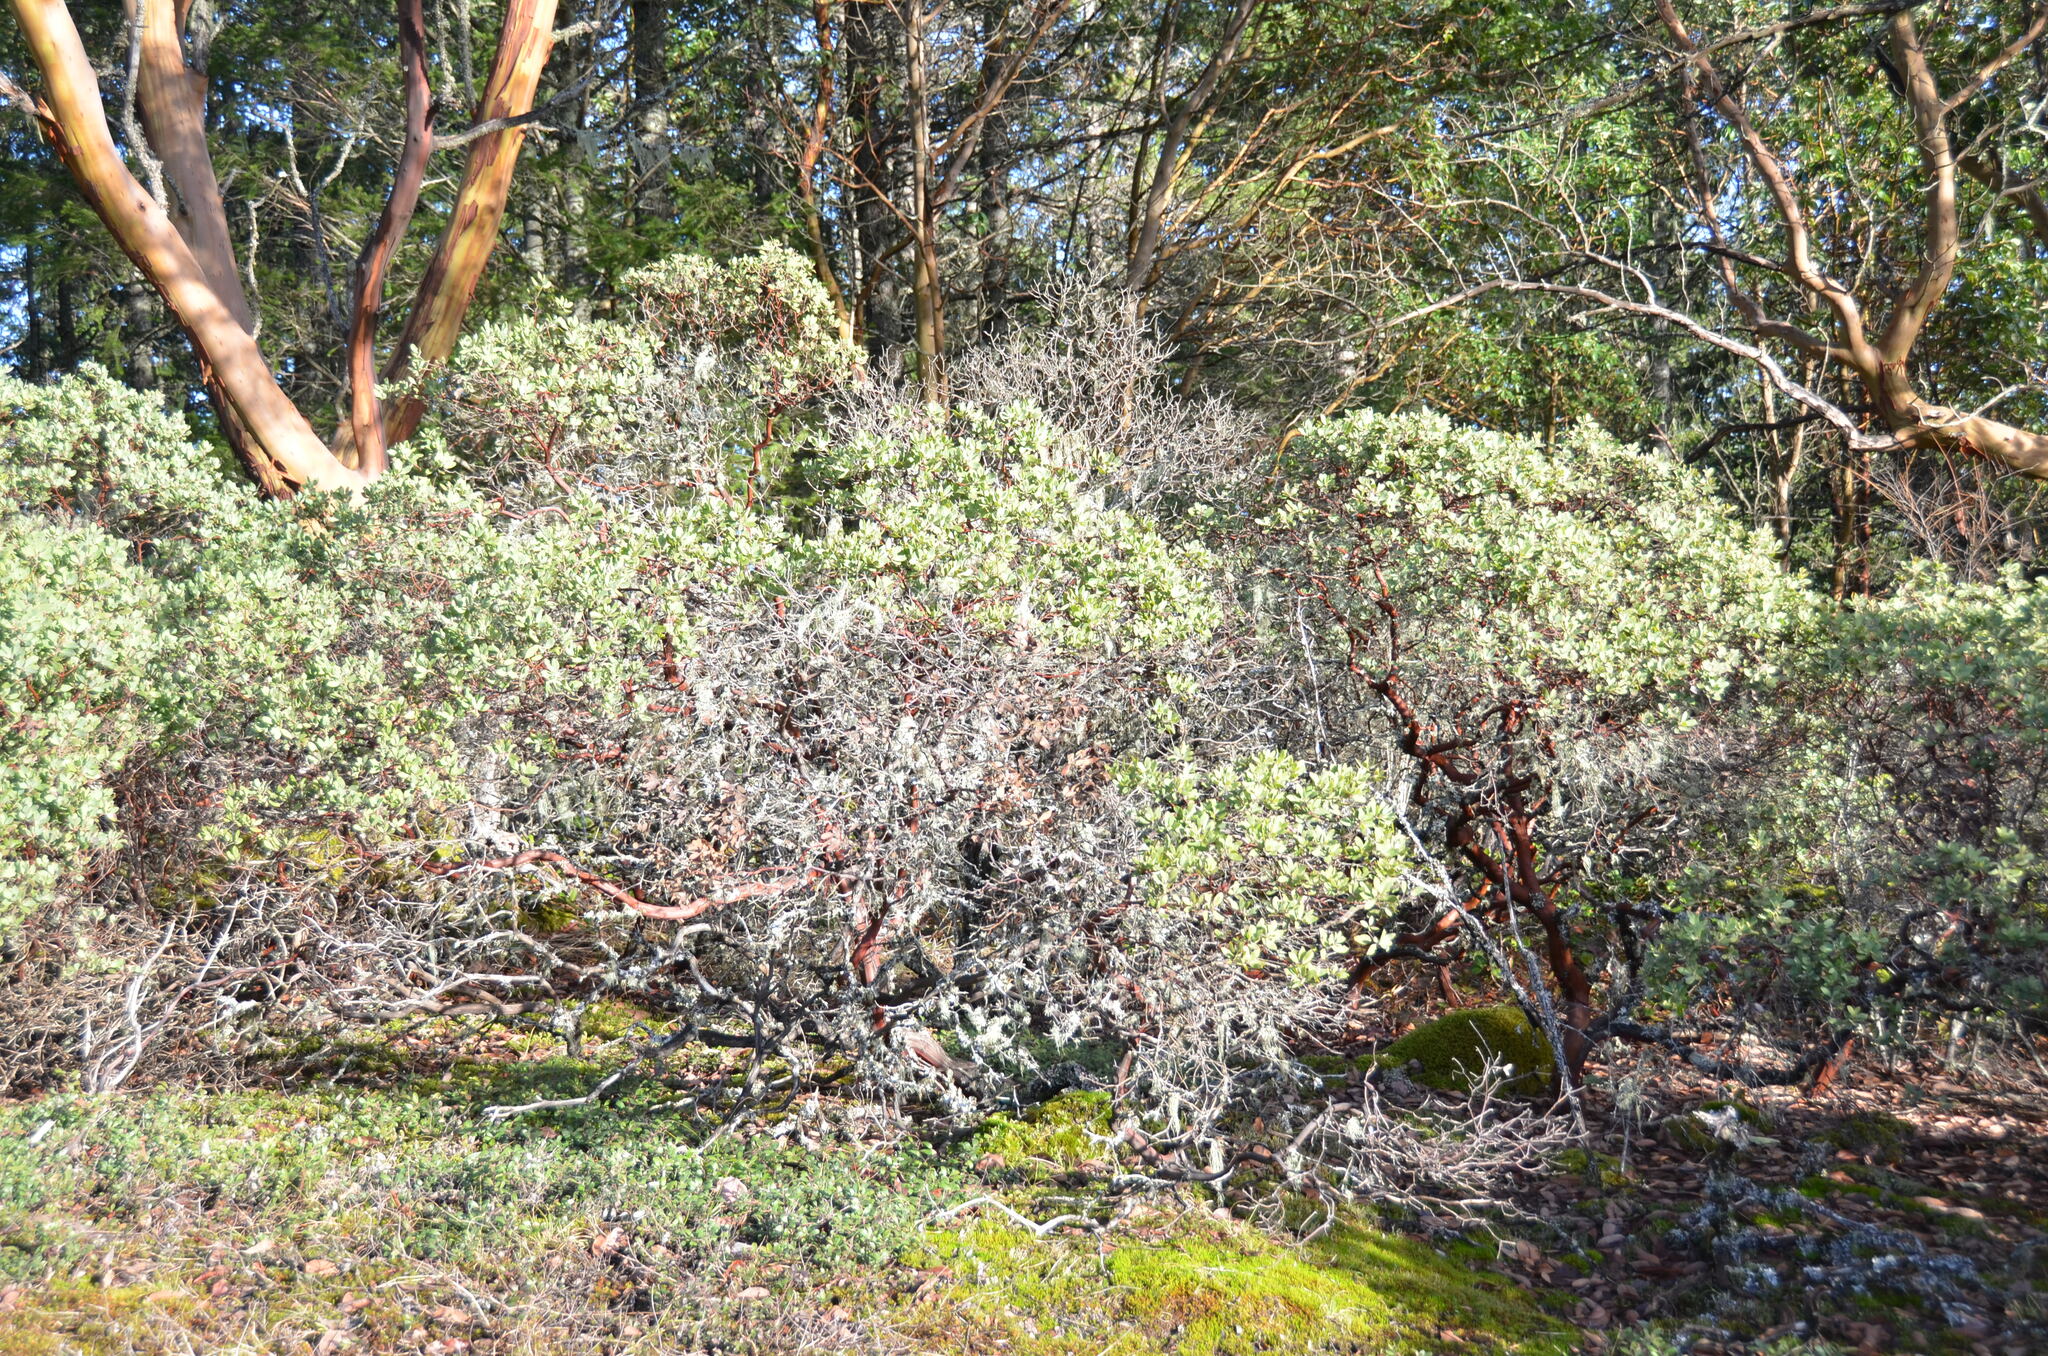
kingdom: Plantae
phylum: Tracheophyta
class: Magnoliopsida
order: Ericales
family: Ericaceae
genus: Arctostaphylos
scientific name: Arctostaphylos columbiana
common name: Bristly bearberry
